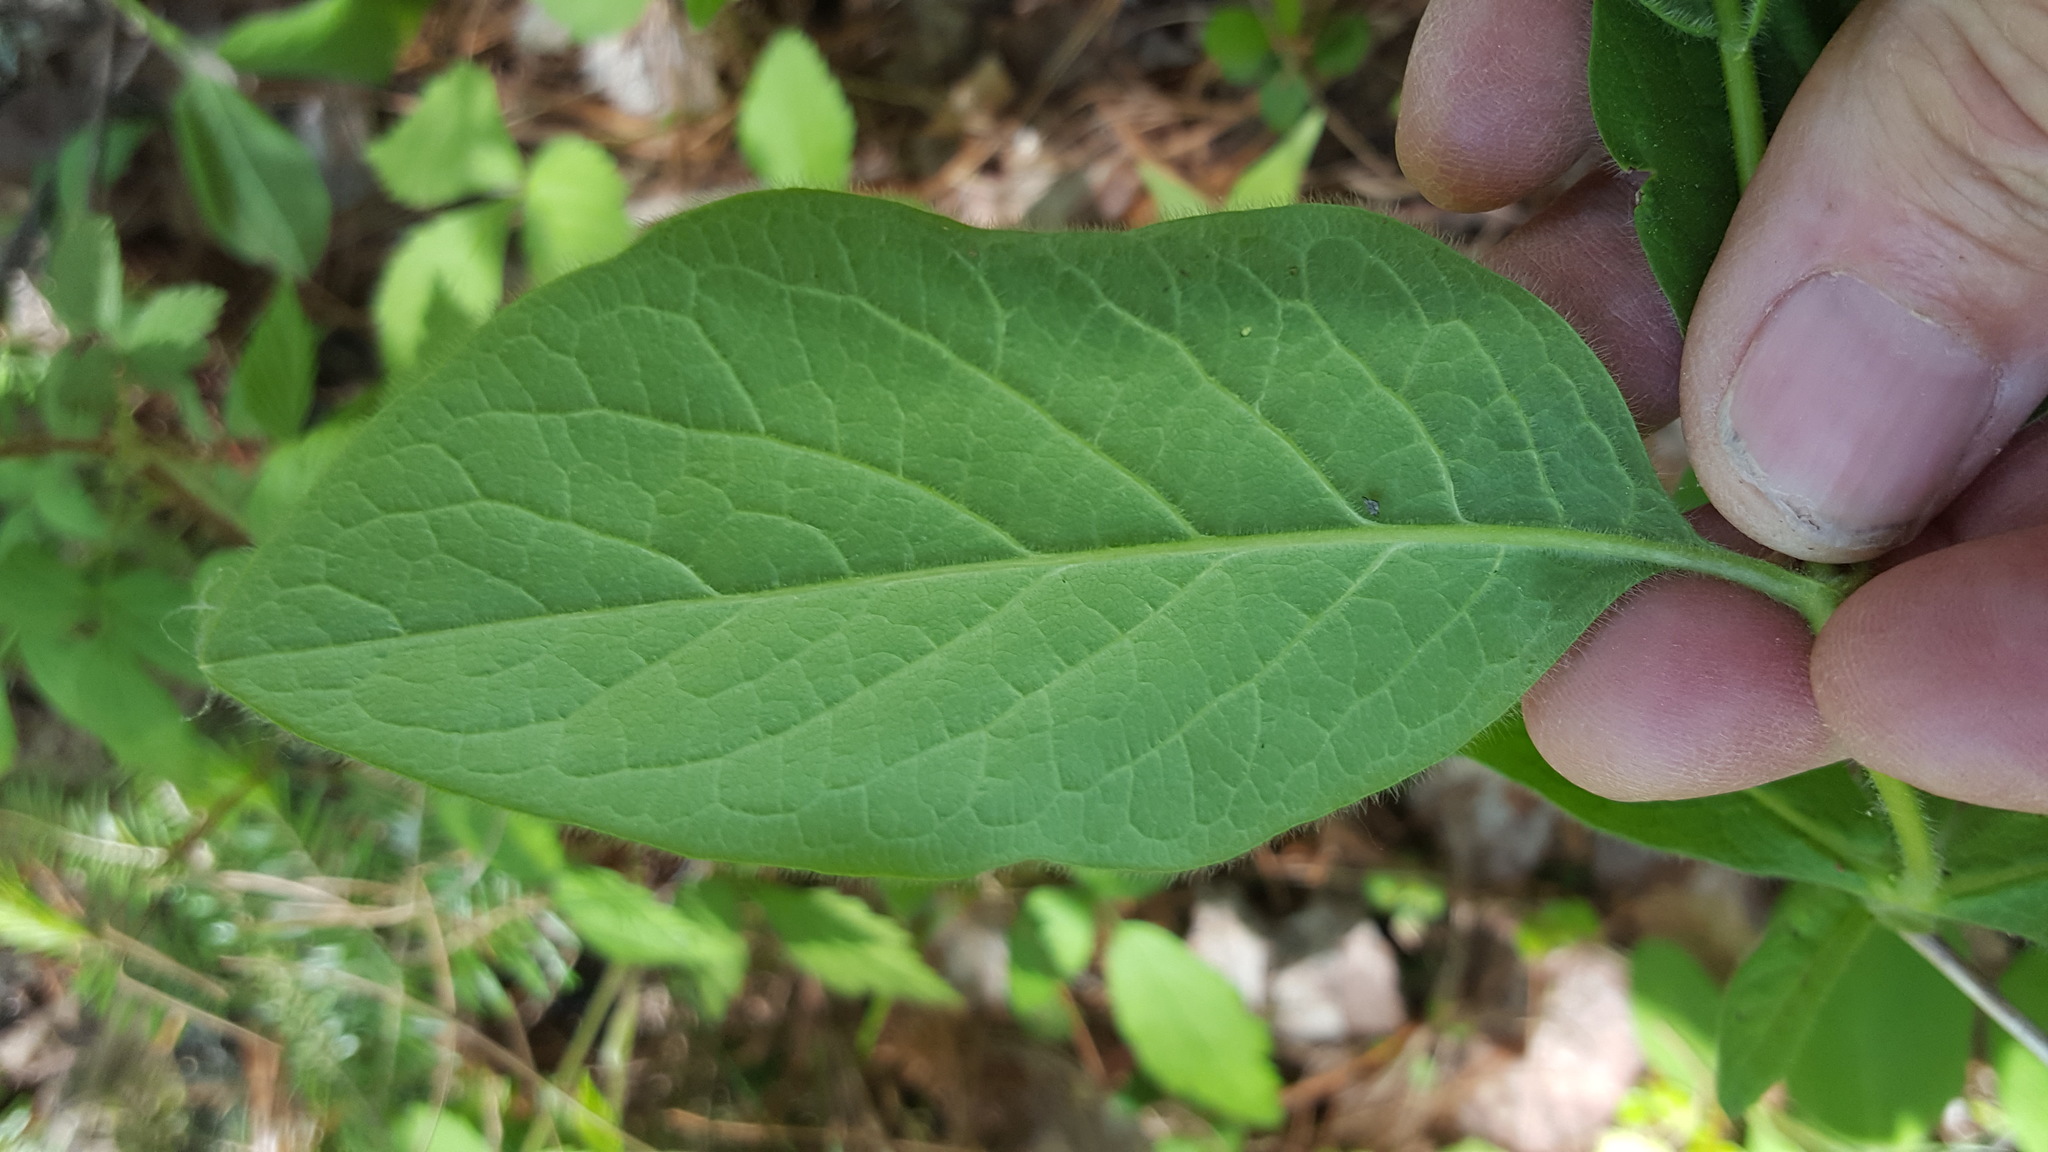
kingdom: Plantae
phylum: Tracheophyta
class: Magnoliopsida
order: Dipsacales
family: Caprifoliaceae
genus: Lonicera
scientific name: Lonicera hirsuta
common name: Hairy honeysuckle
